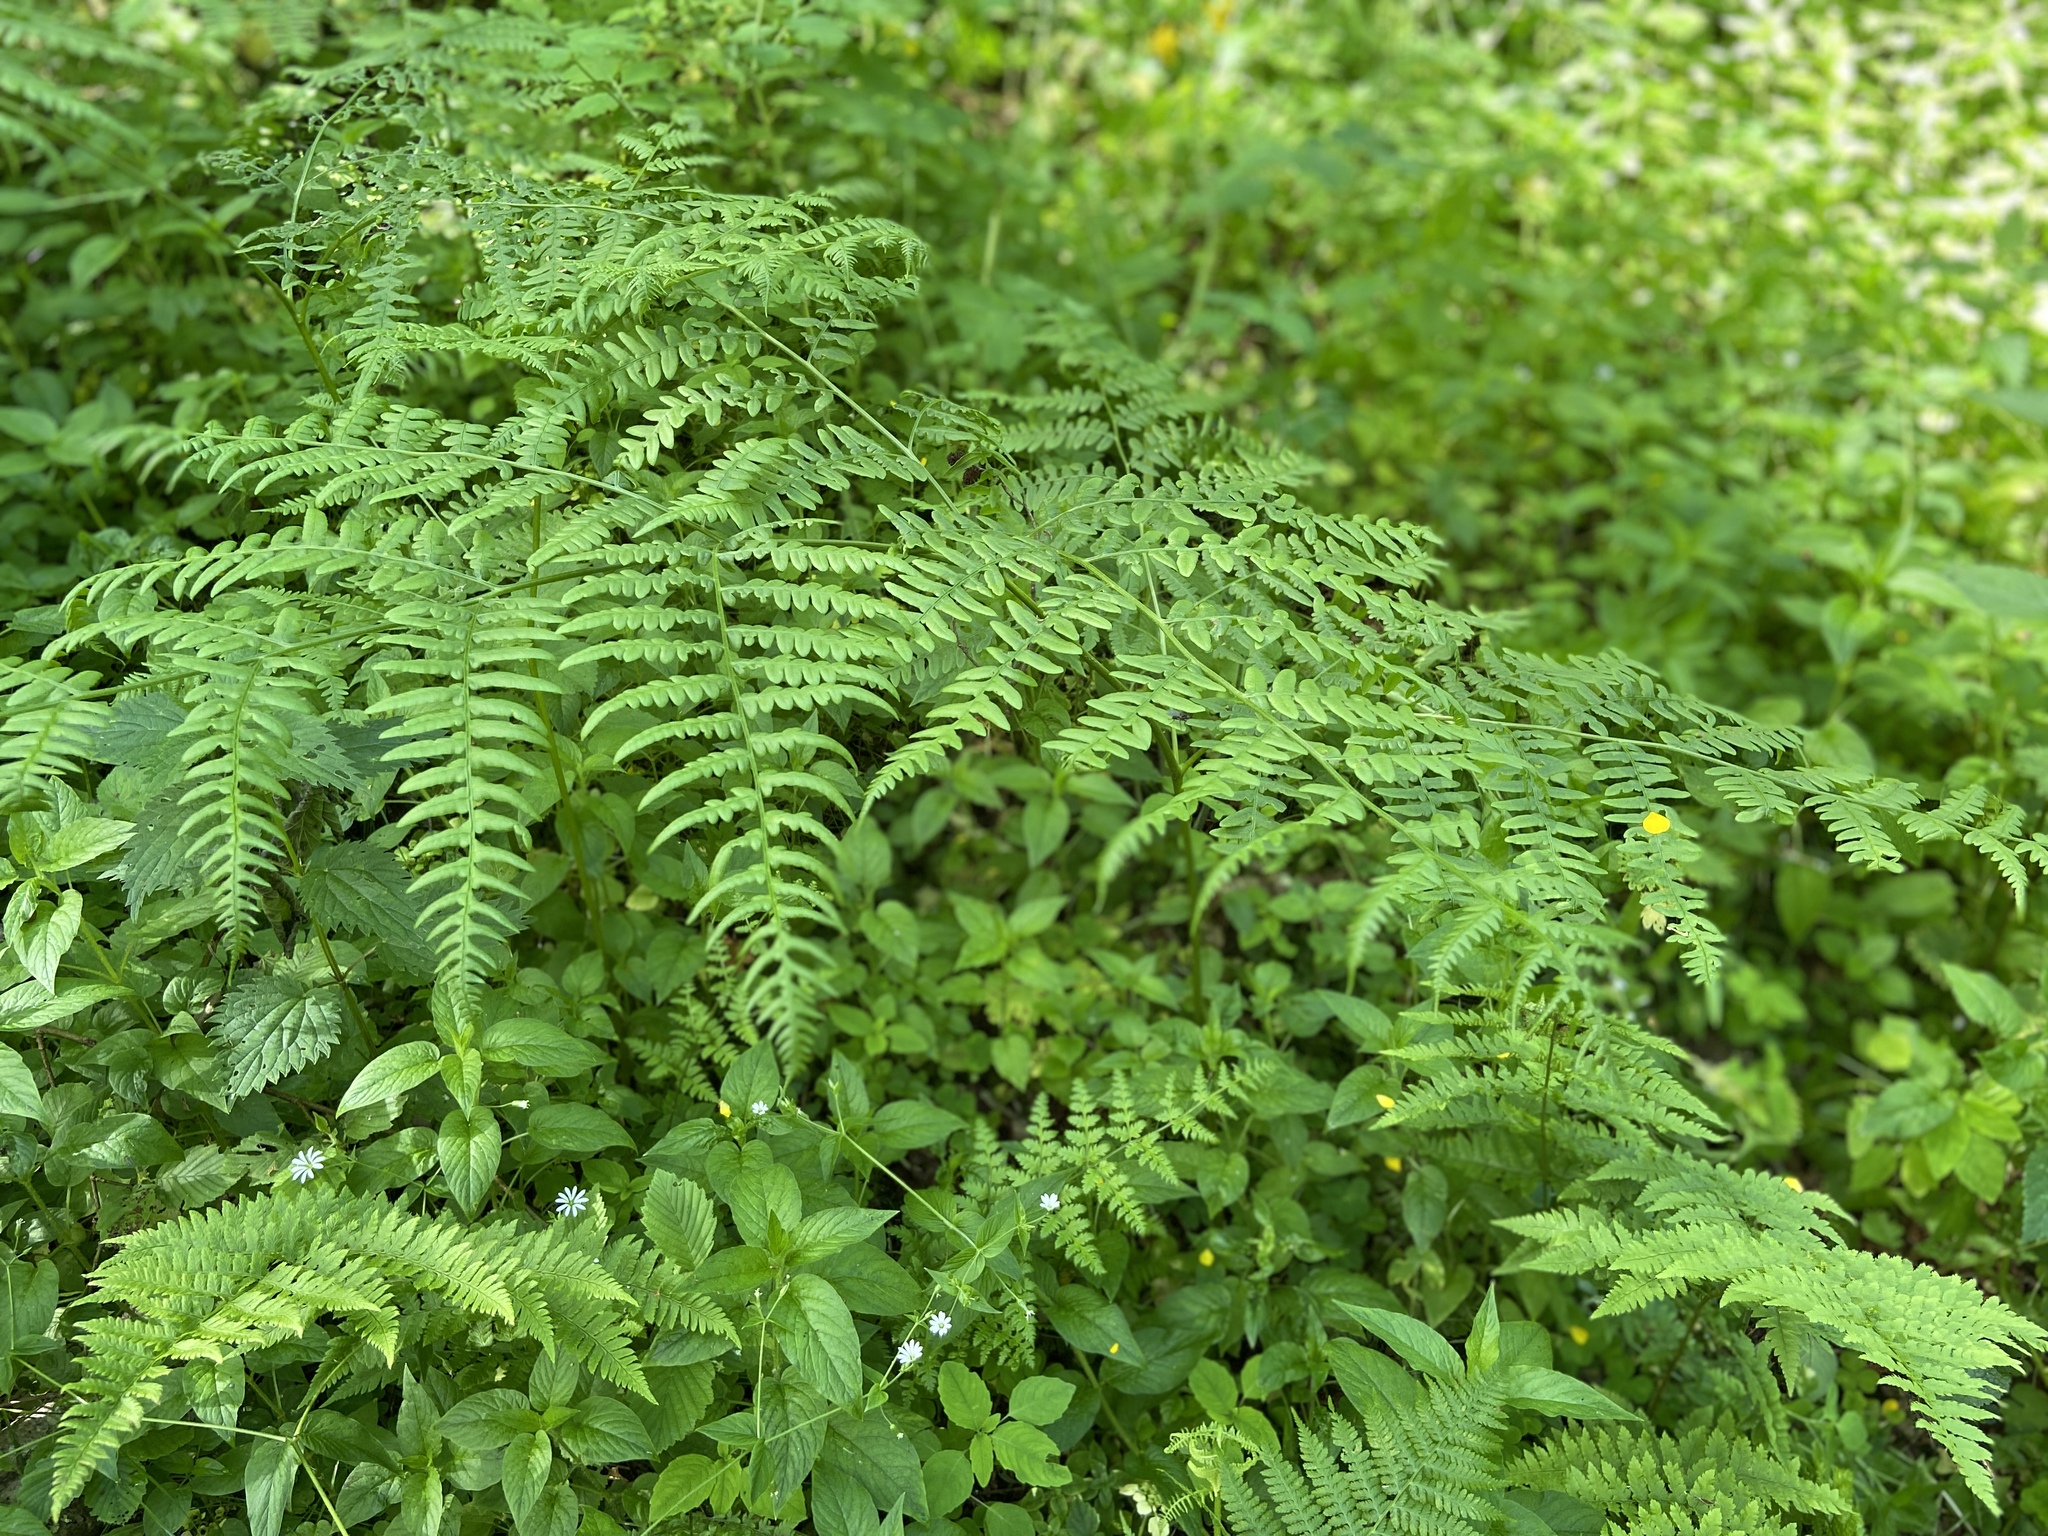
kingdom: Plantae
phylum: Tracheophyta
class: Polypodiopsida
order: Polypodiales
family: Dennstaedtiaceae
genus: Pteridium
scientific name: Pteridium aquilinum
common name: Bracken
